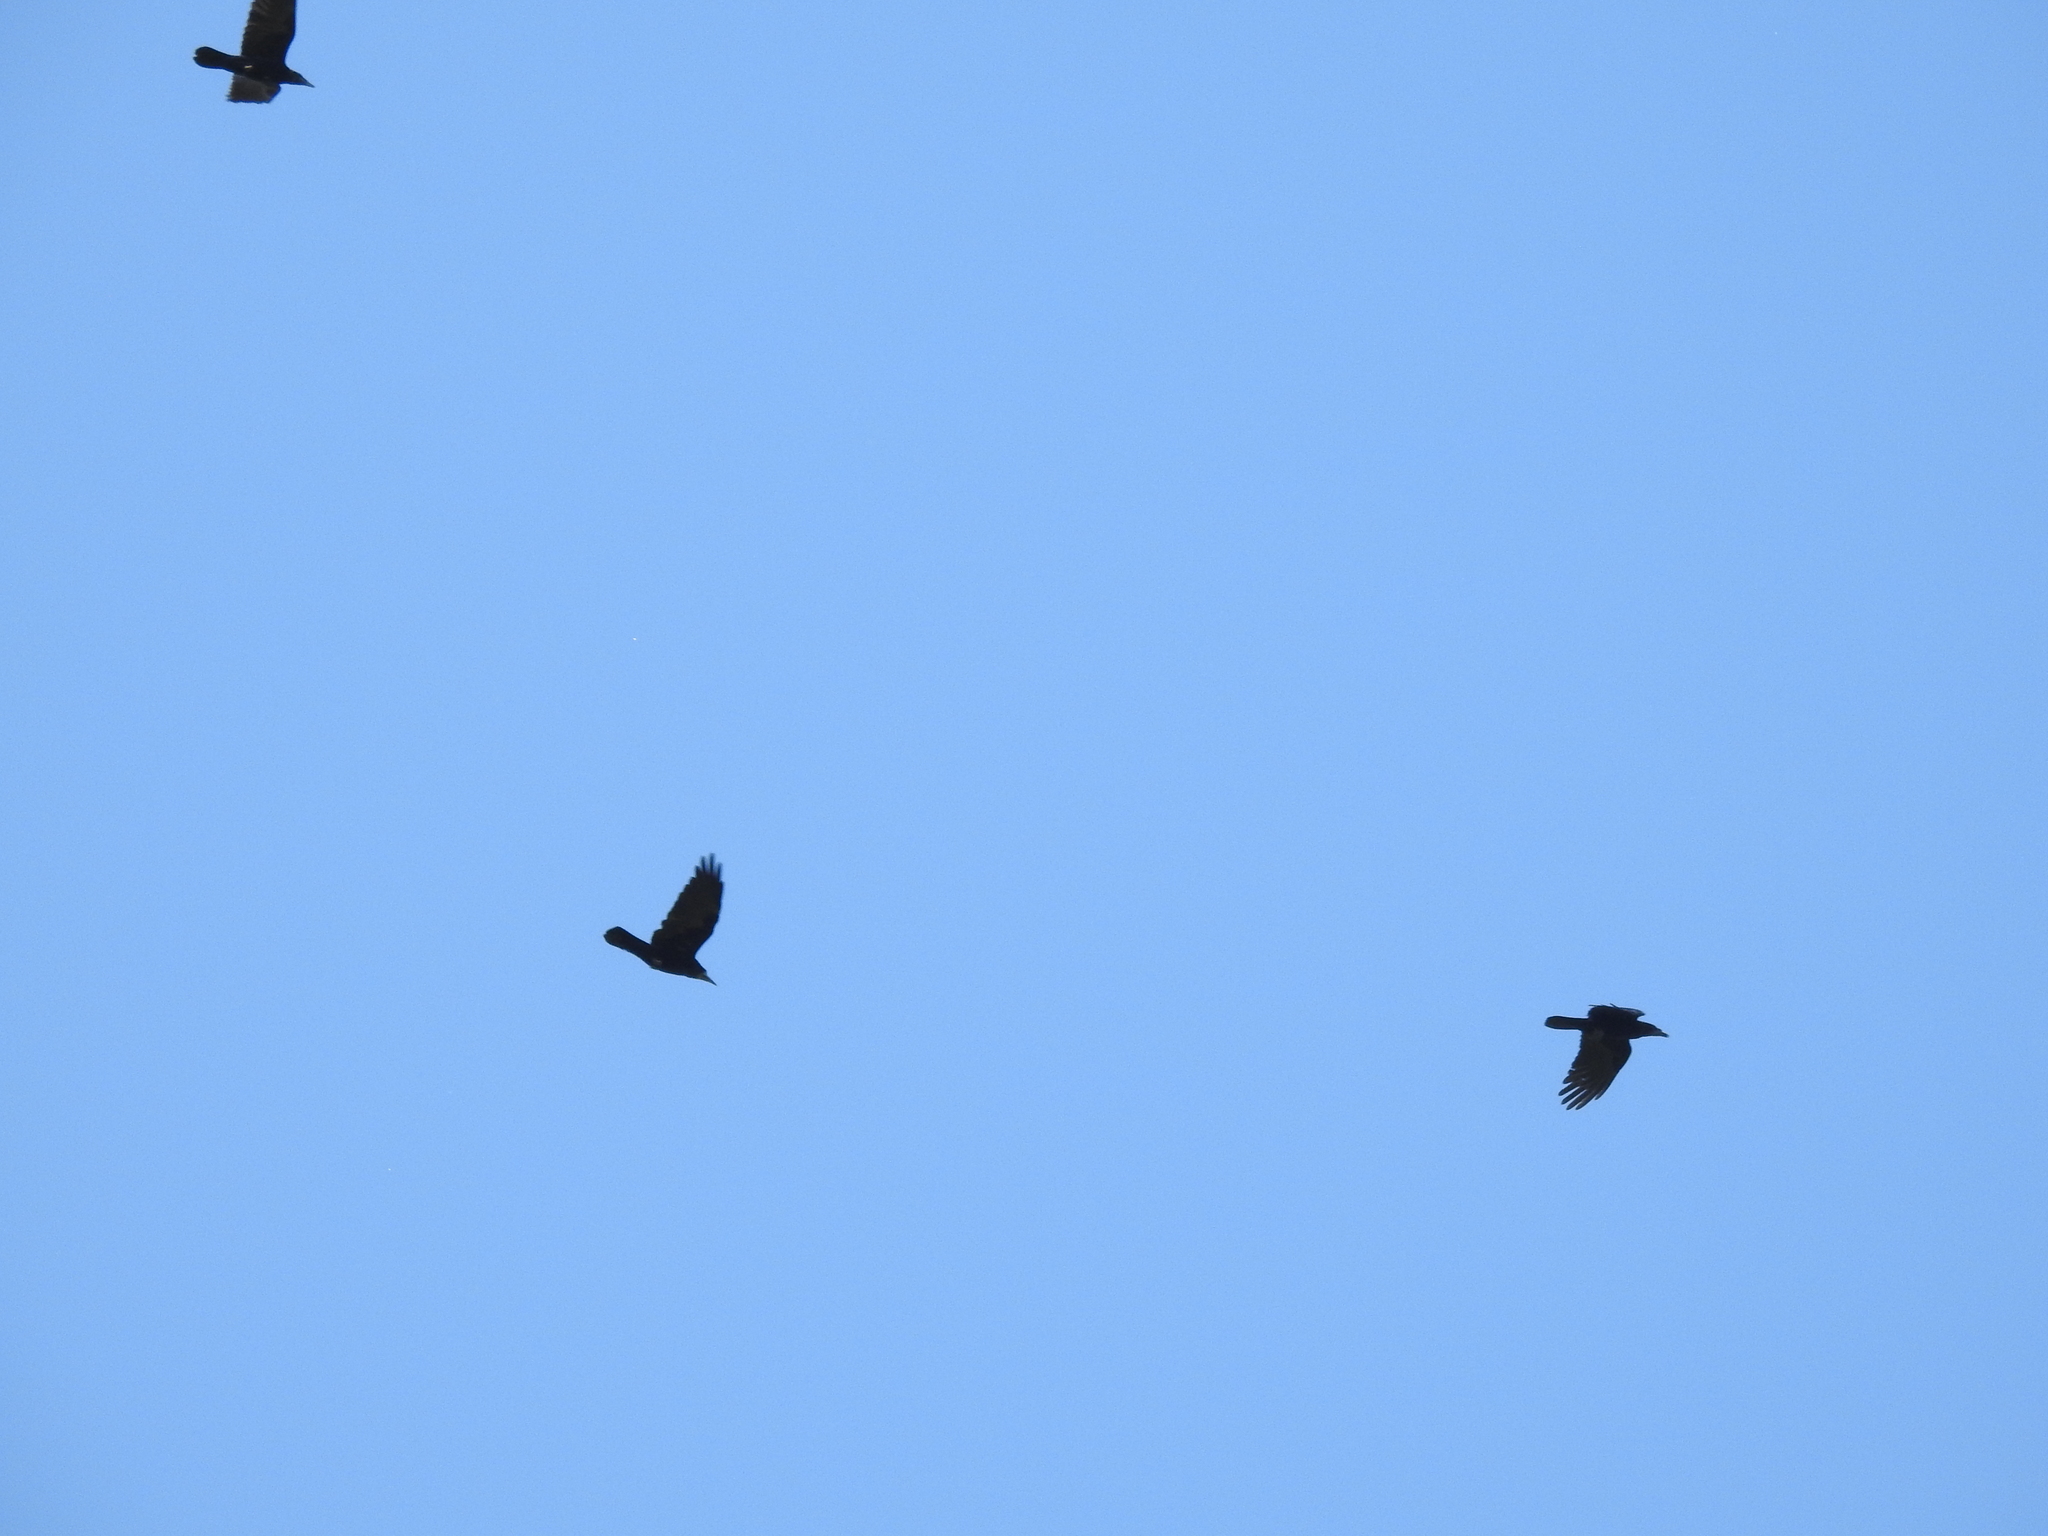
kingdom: Animalia
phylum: Chordata
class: Aves
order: Passeriformes
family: Corvidae
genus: Corvus
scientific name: Corvus corax
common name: Common raven
